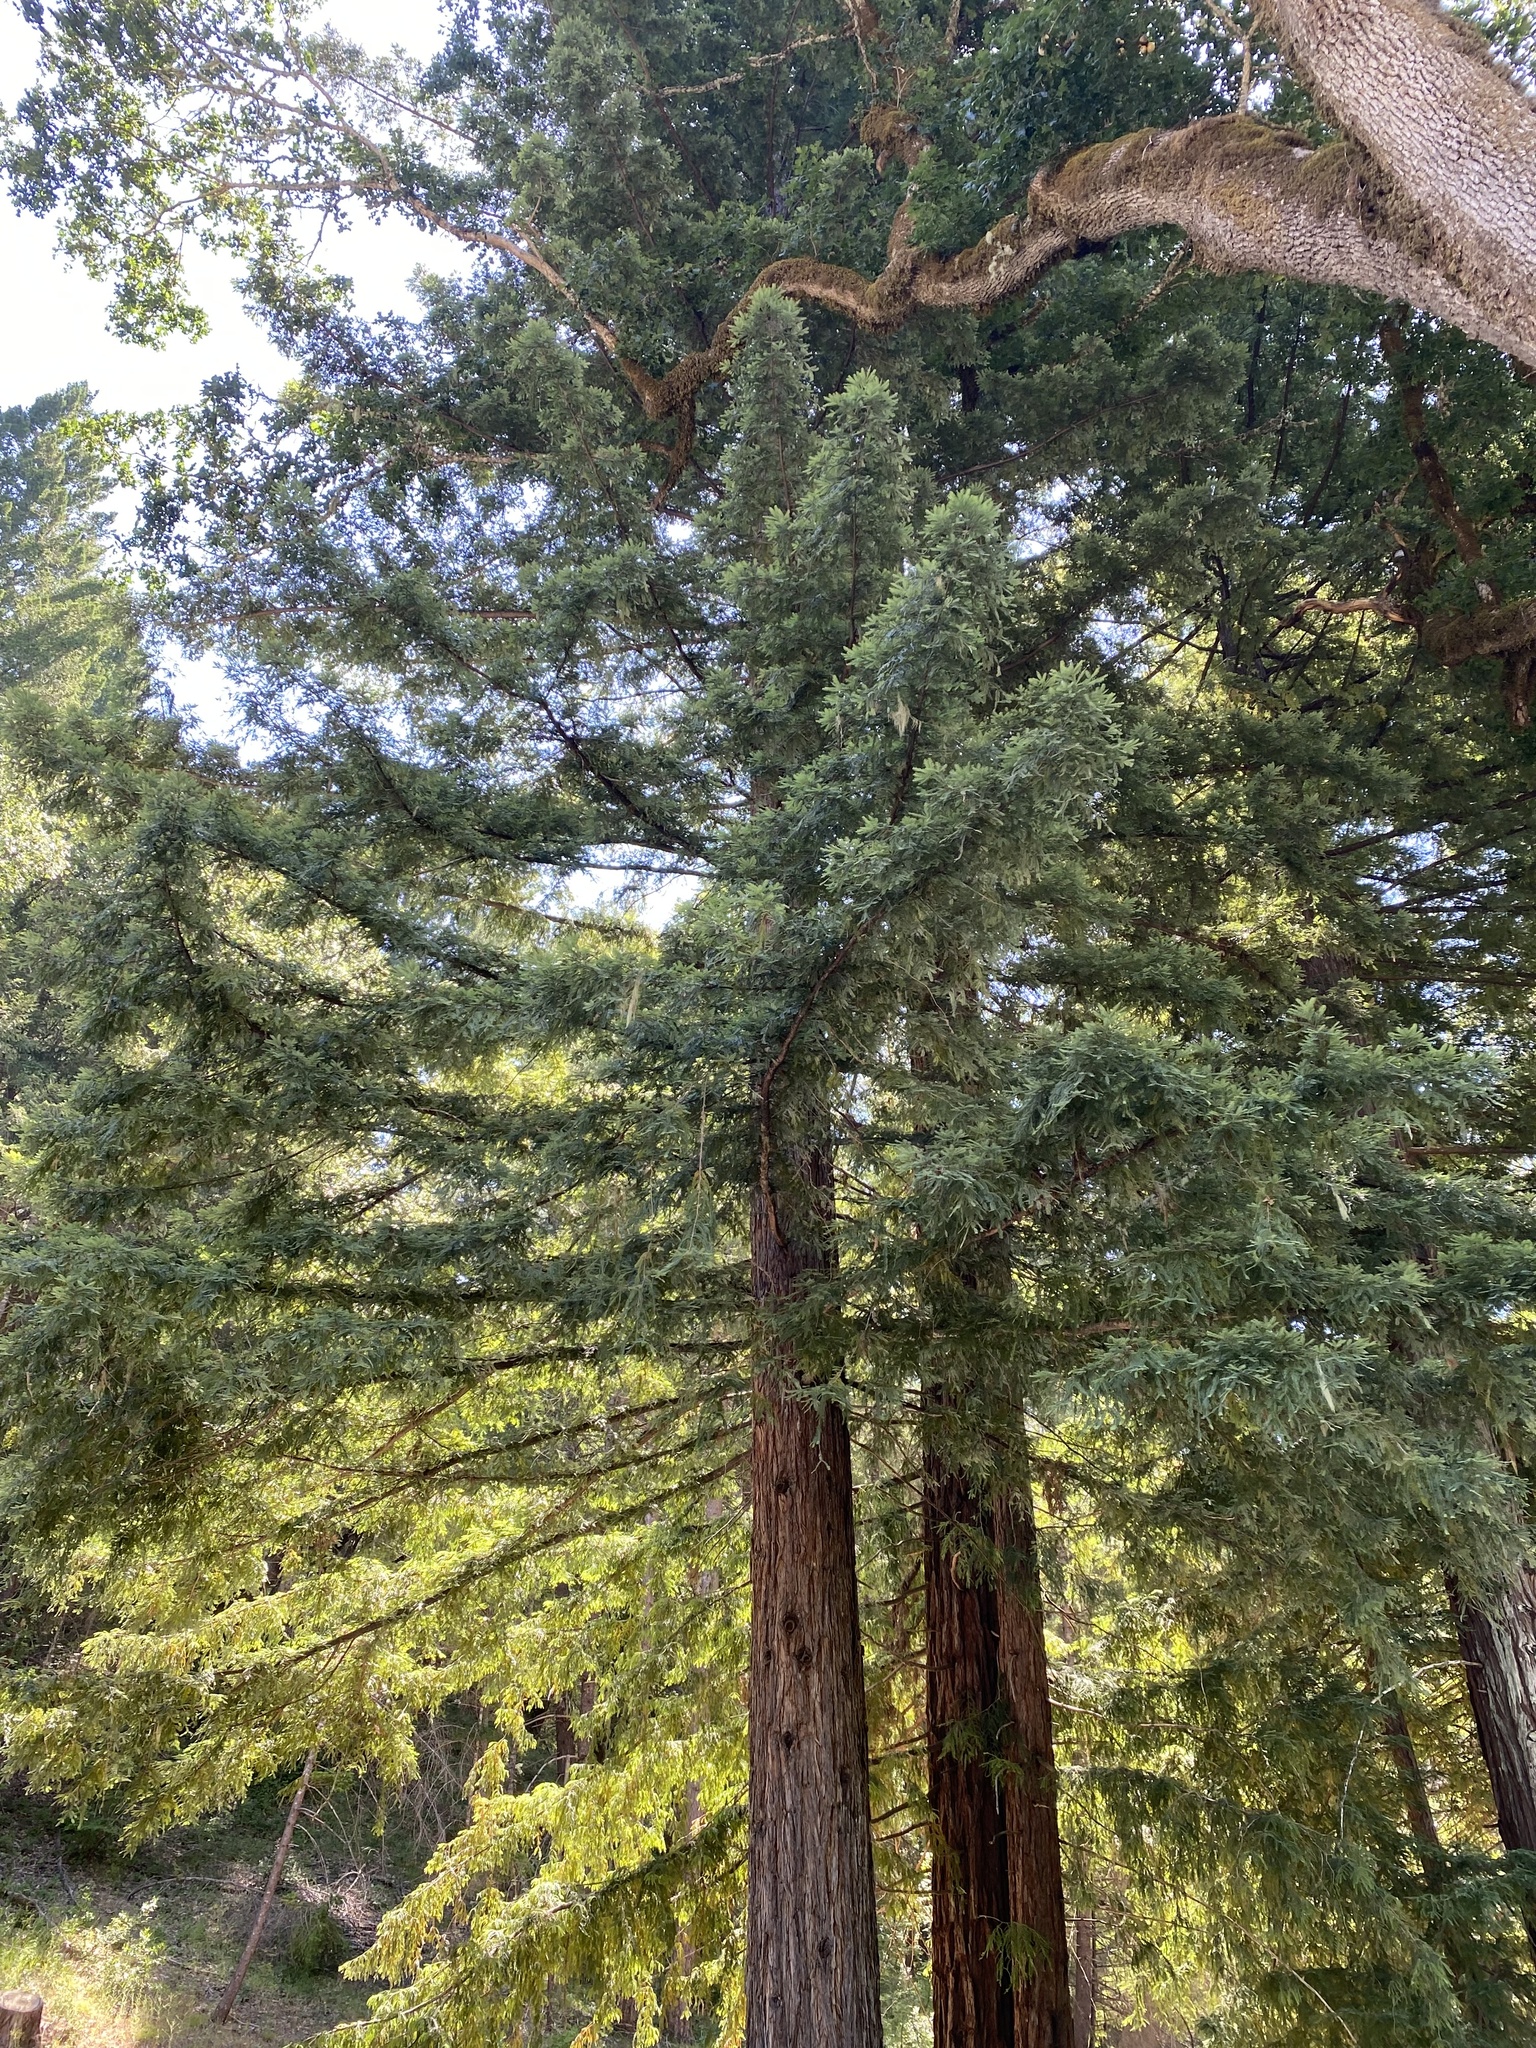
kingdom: Plantae
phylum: Tracheophyta
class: Pinopsida
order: Pinales
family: Cupressaceae
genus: Sequoia
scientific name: Sequoia sempervirens
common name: Coast redwood
